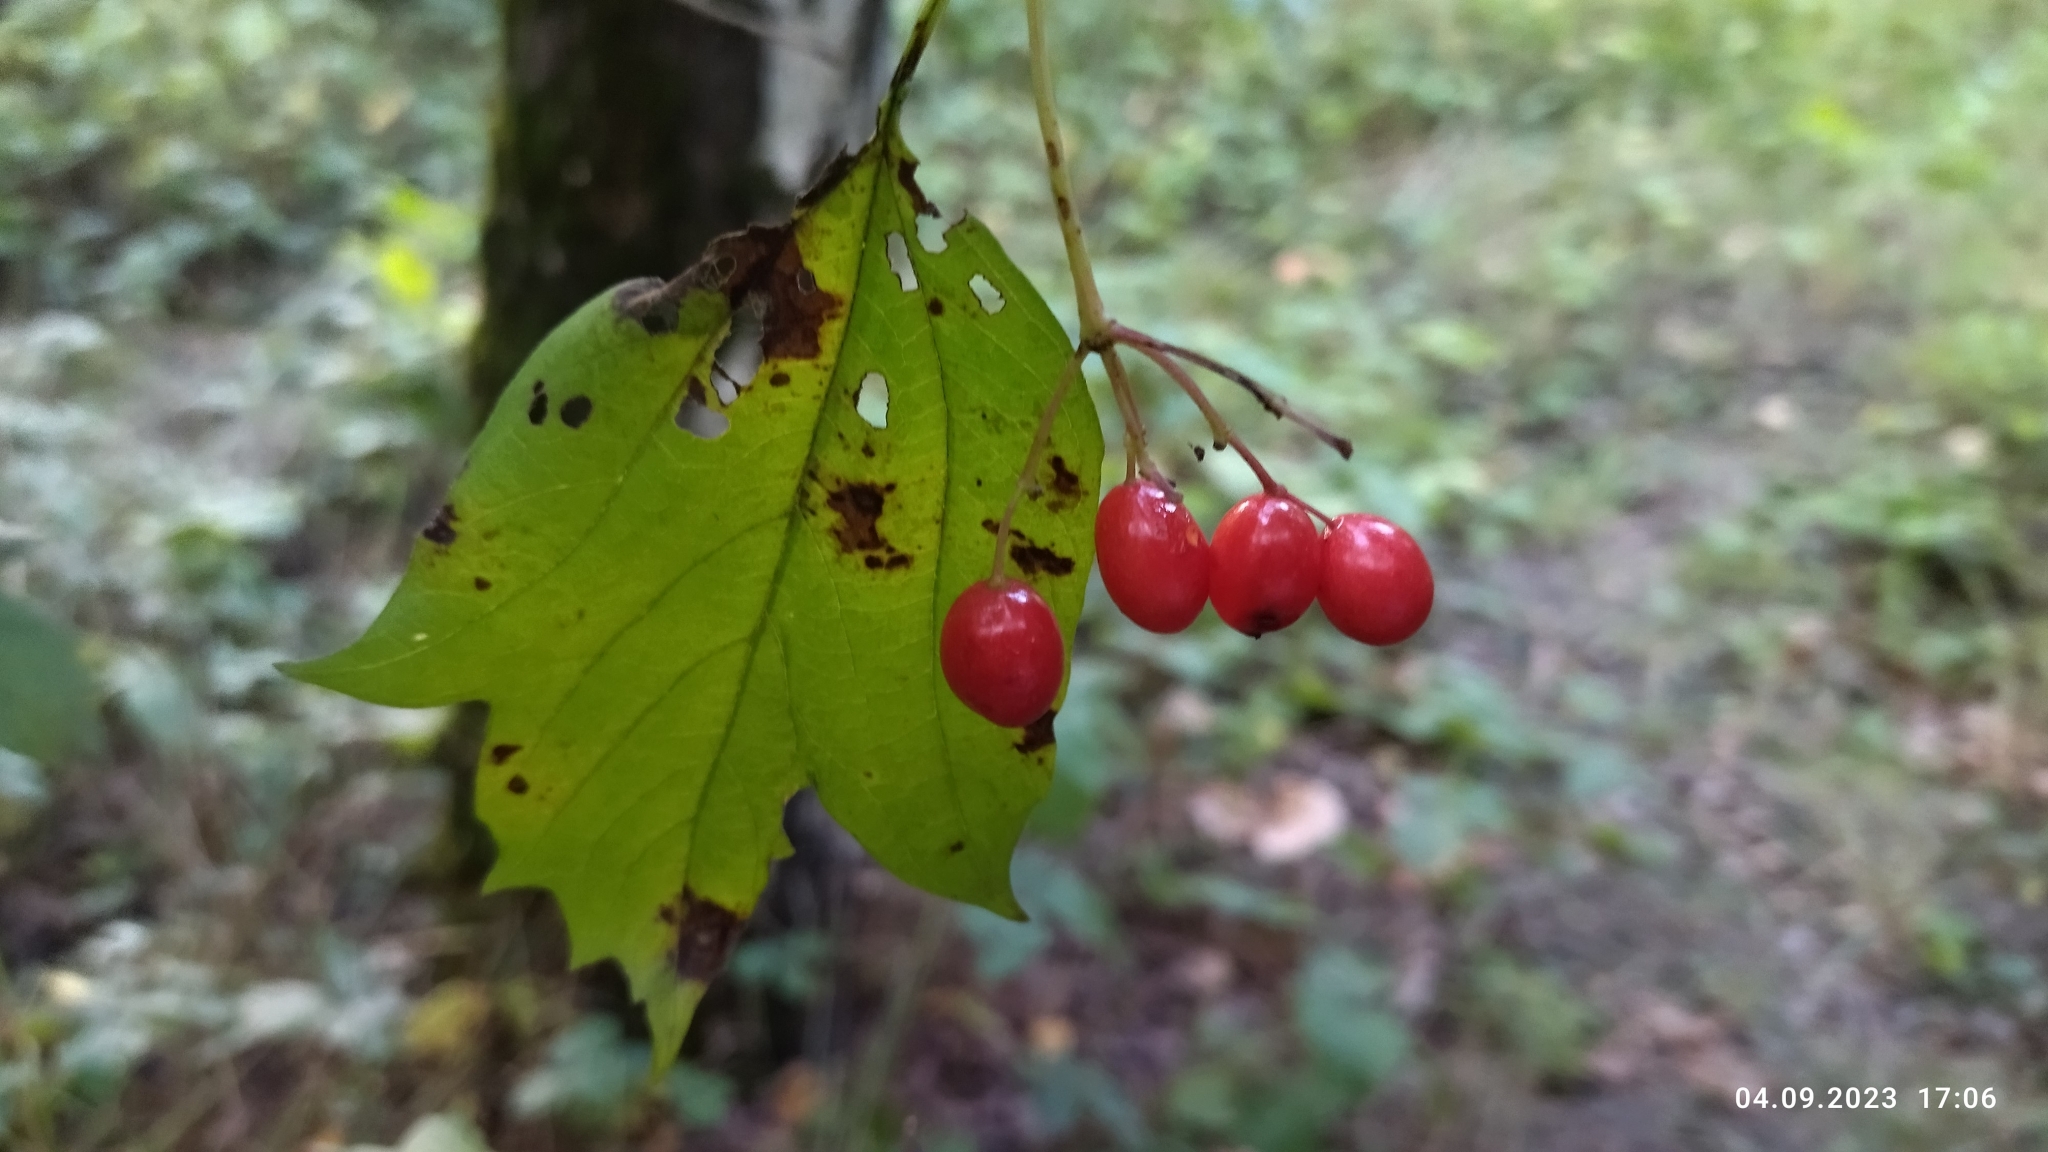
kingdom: Plantae
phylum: Tracheophyta
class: Magnoliopsida
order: Dipsacales
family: Viburnaceae
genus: Viburnum
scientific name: Viburnum opulus
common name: Guelder-rose
